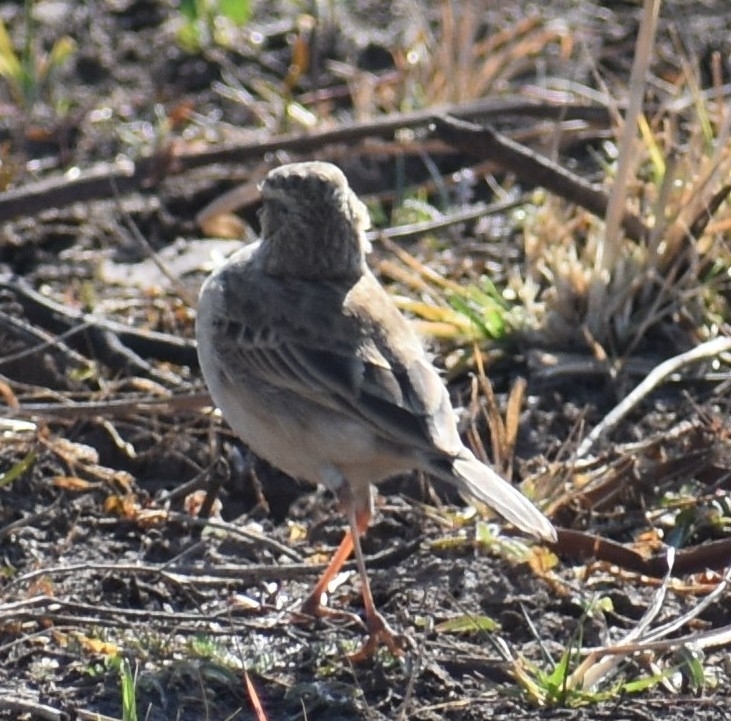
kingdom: Animalia
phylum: Chordata
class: Aves
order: Passeriformes
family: Motacillidae
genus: Anthus
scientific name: Anthus cinnamomeus
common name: African pipit
